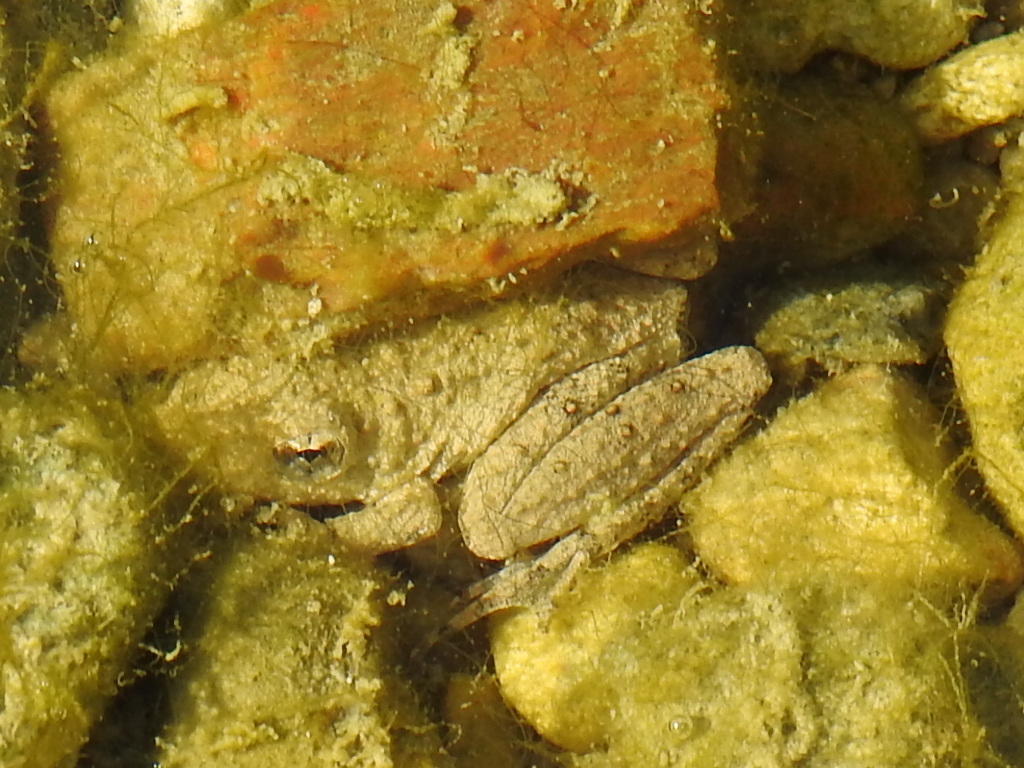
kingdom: Animalia
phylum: Chordata
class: Amphibia
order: Anura
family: Hylidae
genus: Acris
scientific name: Acris blanchardi
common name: Blanchard's cricket frog
